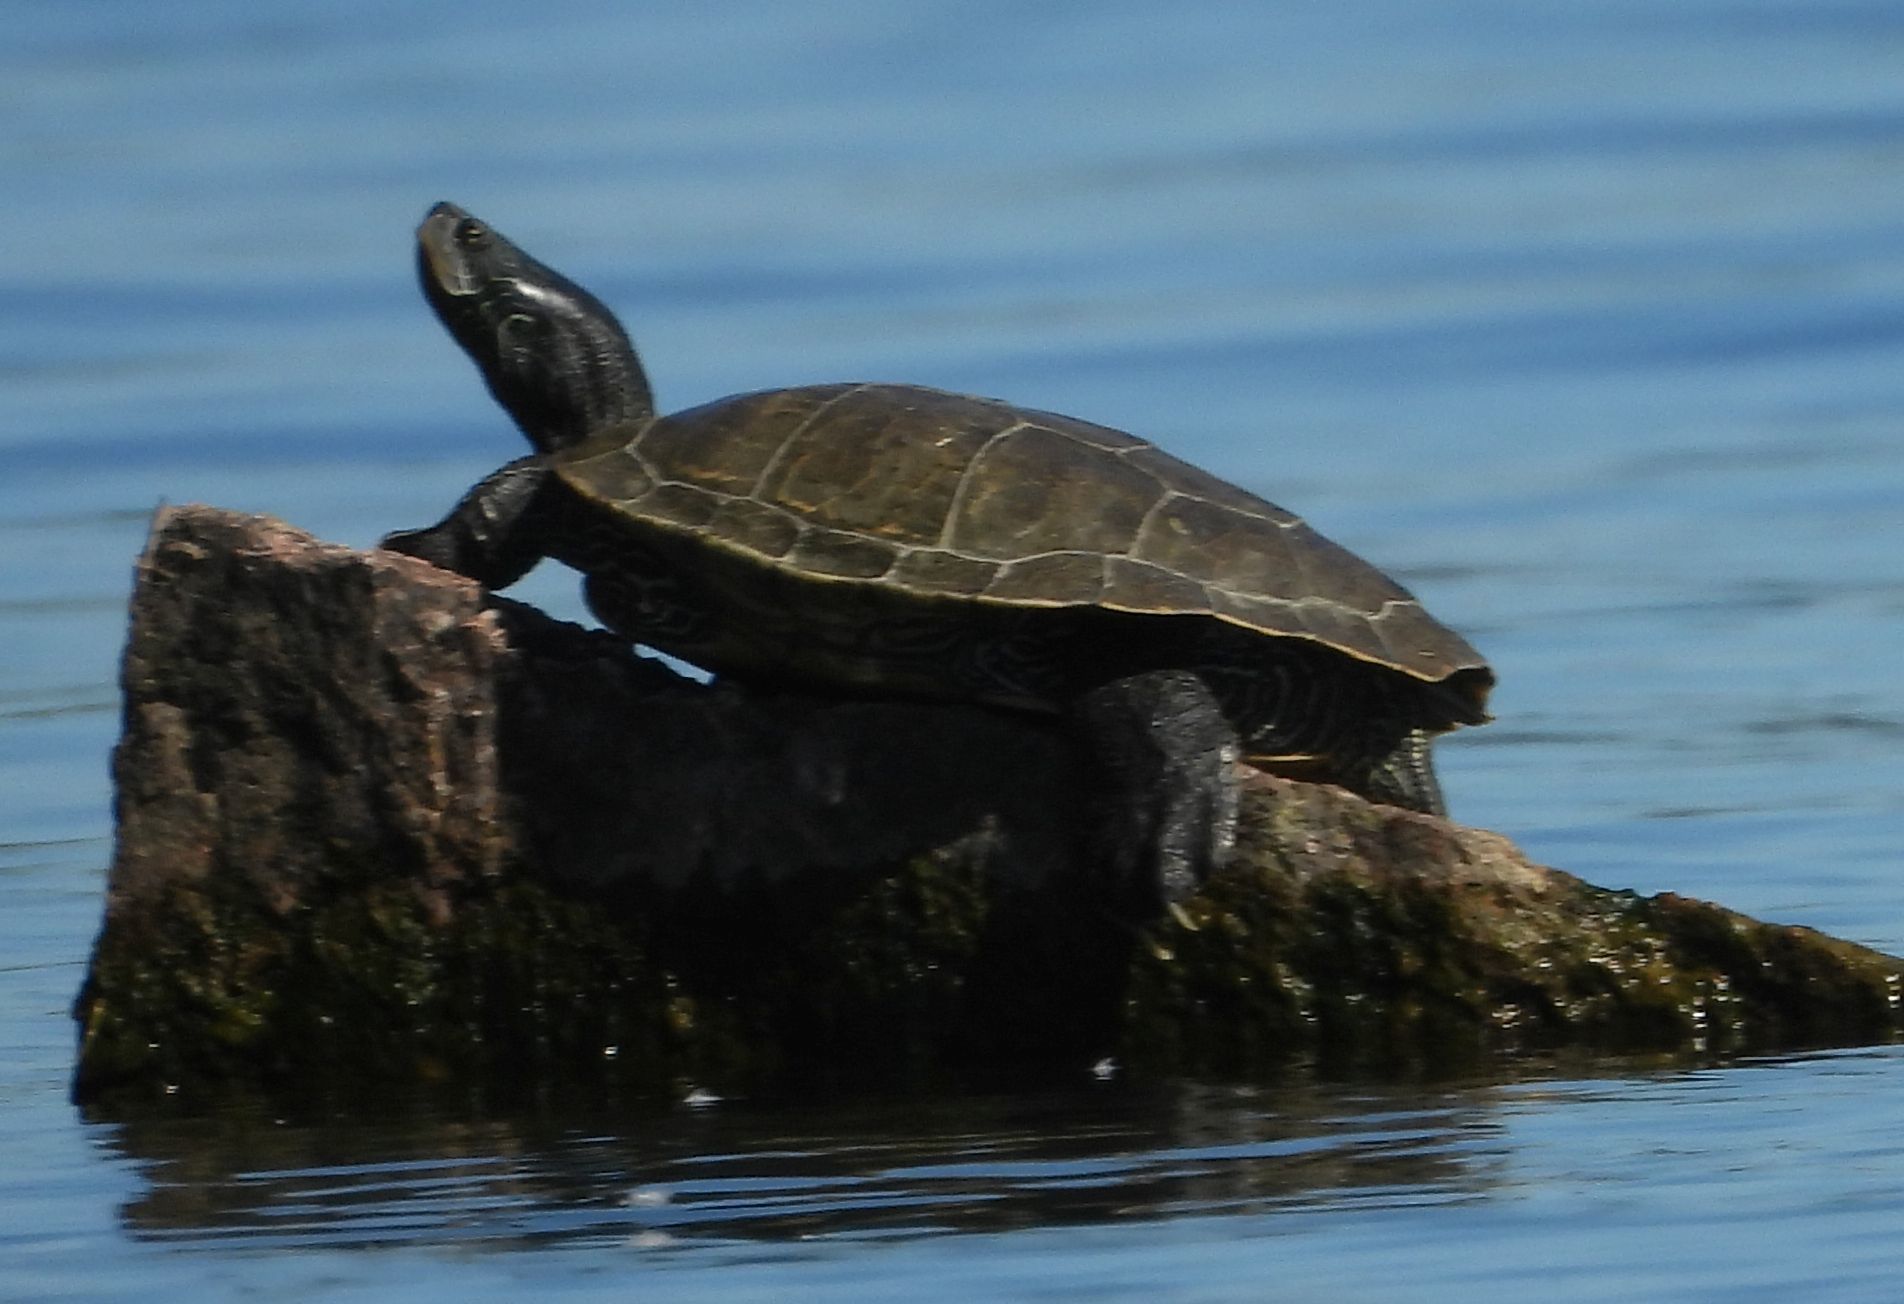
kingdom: Animalia
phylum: Chordata
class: Testudines
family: Emydidae
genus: Graptemys
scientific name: Graptemys geographica
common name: Common map turtle
